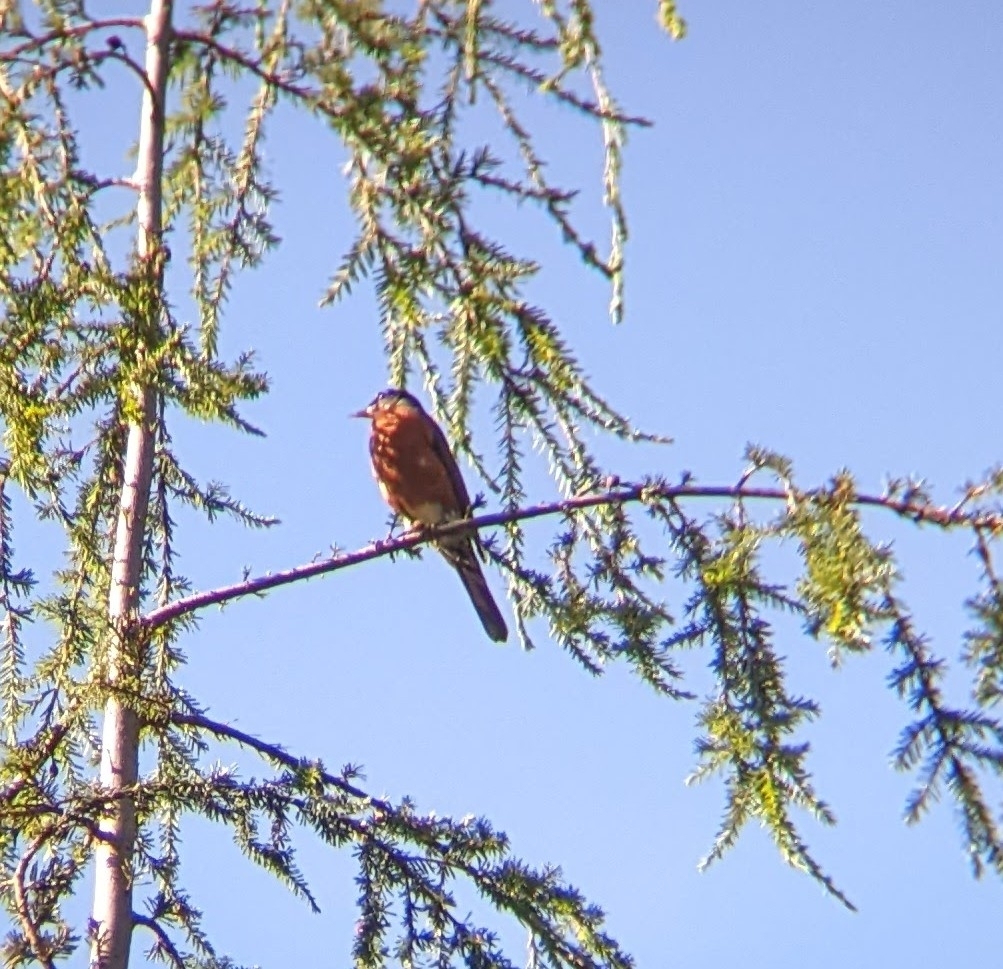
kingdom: Animalia
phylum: Chordata
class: Aves
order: Passeriformes
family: Turdidae
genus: Turdus
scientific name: Turdus migratorius
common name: American robin
